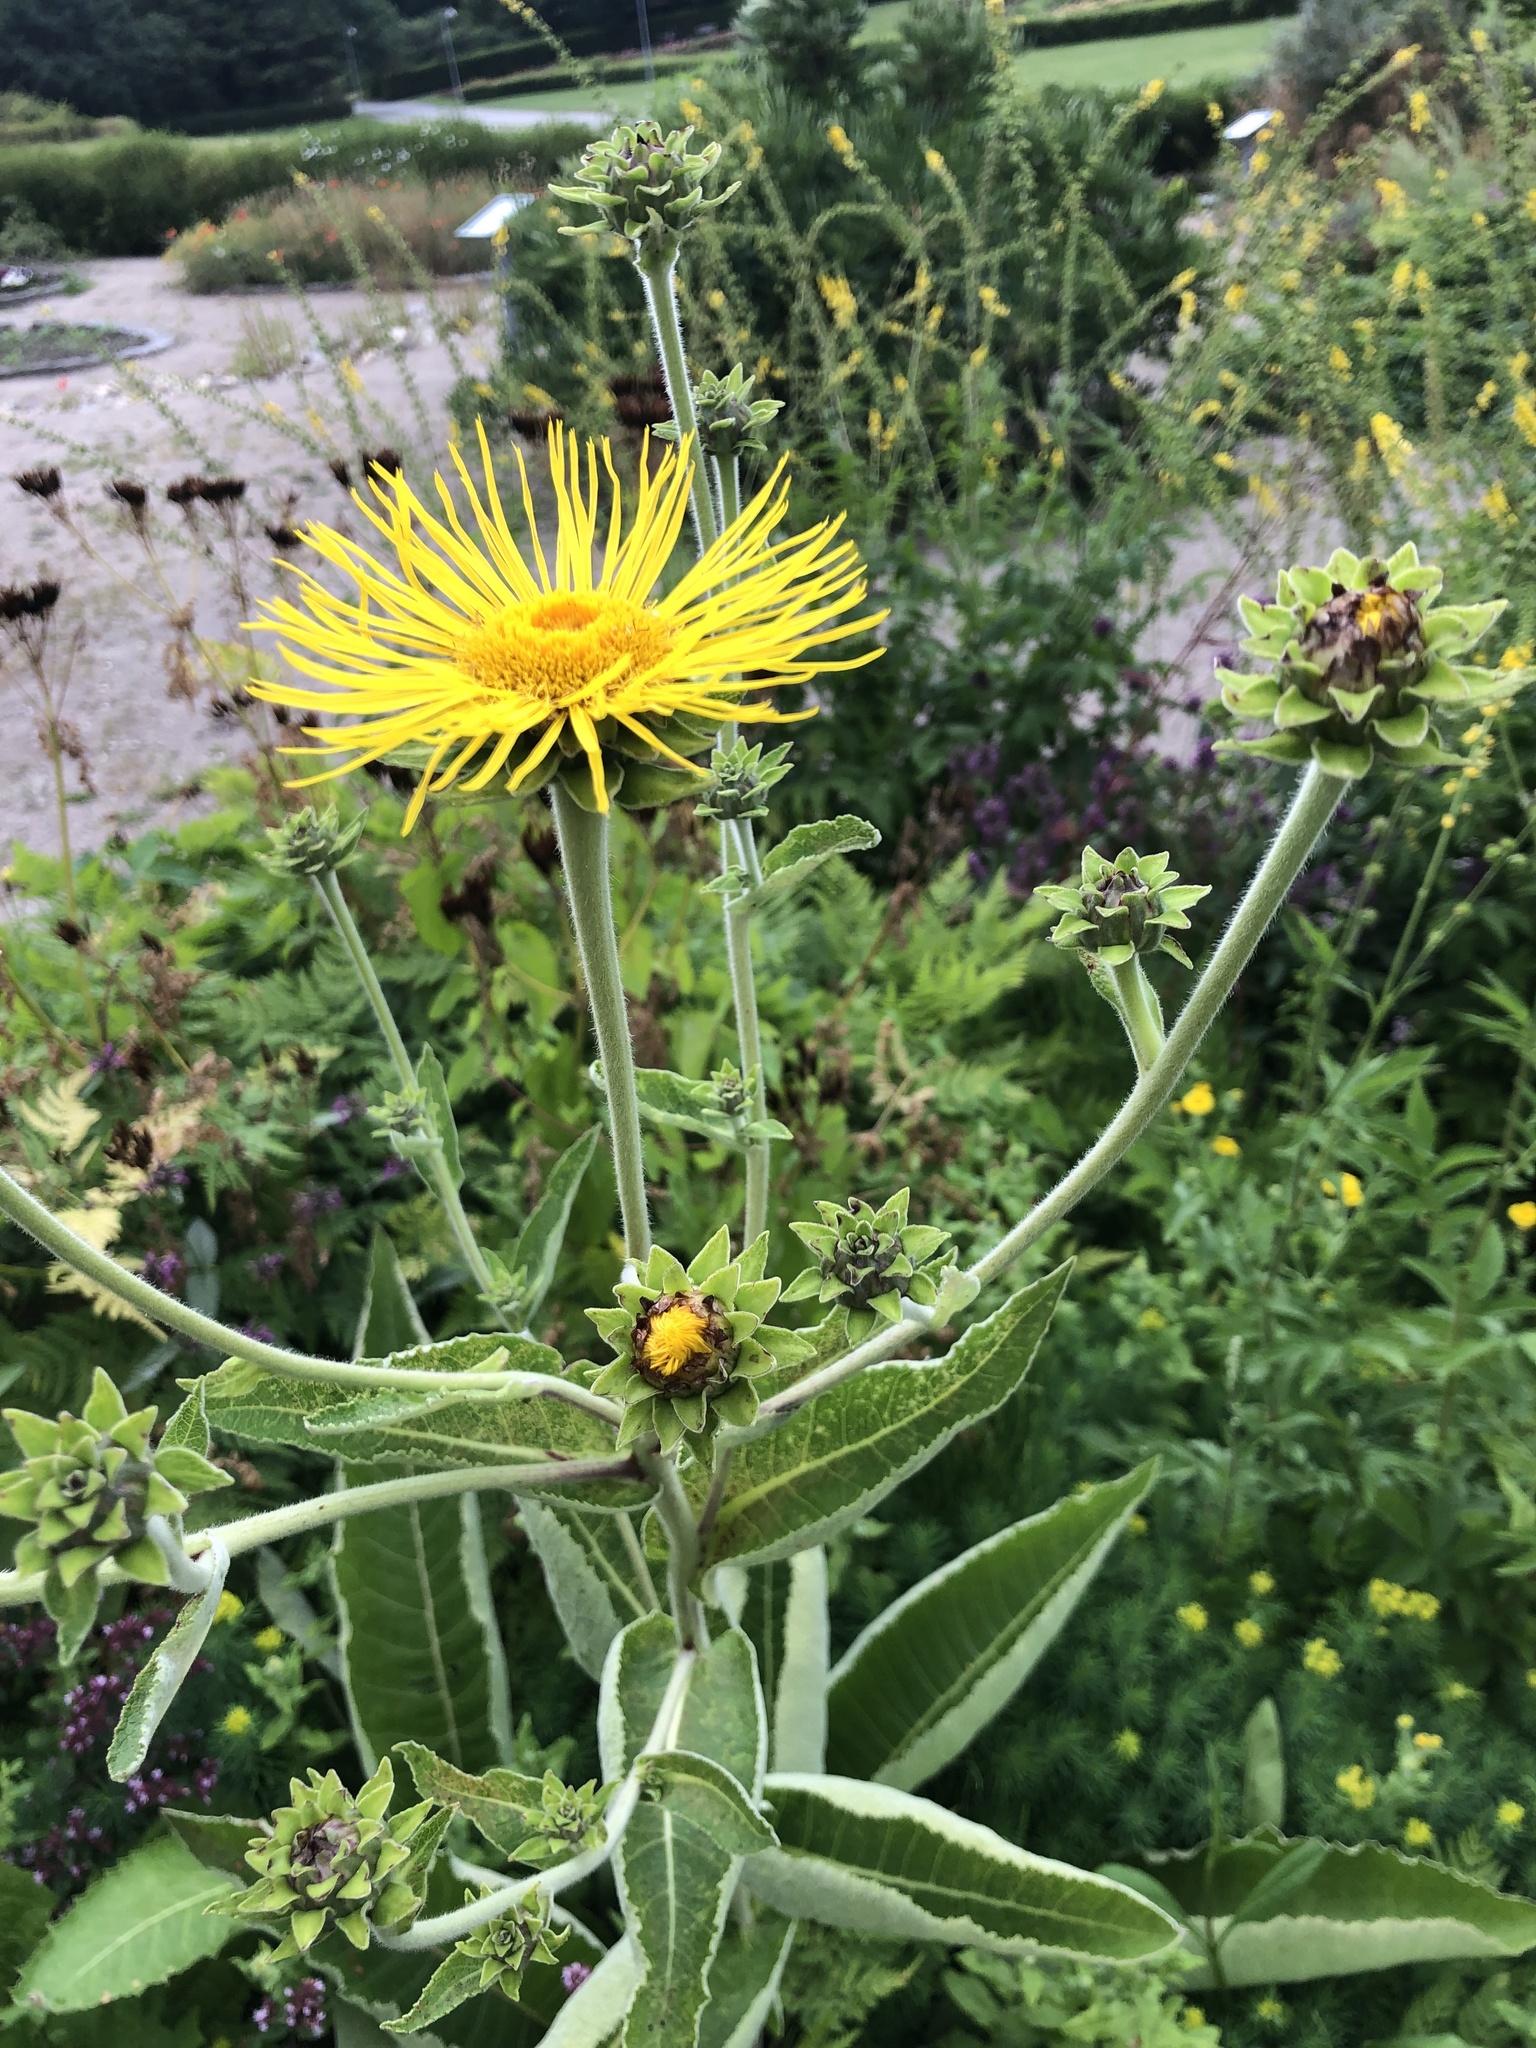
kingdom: Plantae
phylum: Tracheophyta
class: Magnoliopsida
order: Asterales
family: Asteraceae
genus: Inula
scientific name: Inula helenium
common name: Elecampane
